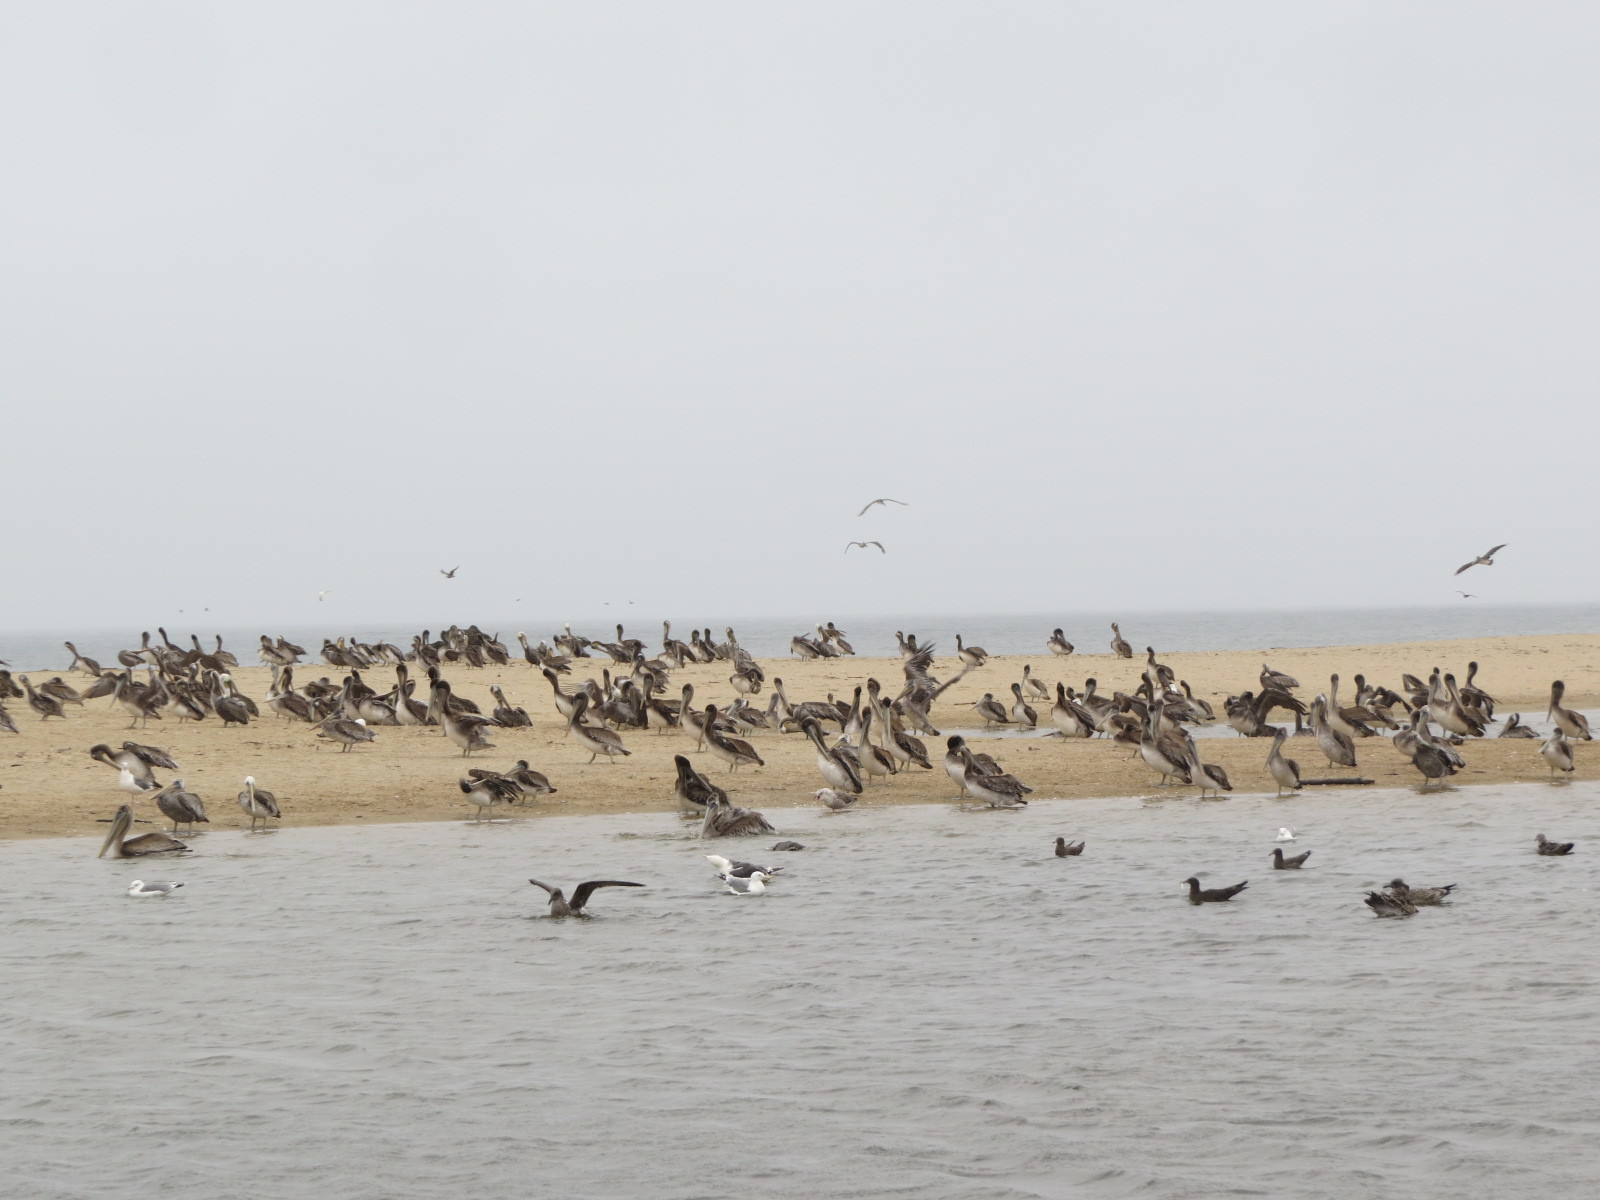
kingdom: Animalia
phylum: Chordata
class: Aves
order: Pelecaniformes
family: Pelecanidae
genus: Pelecanus
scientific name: Pelecanus occidentalis
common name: Brown pelican
